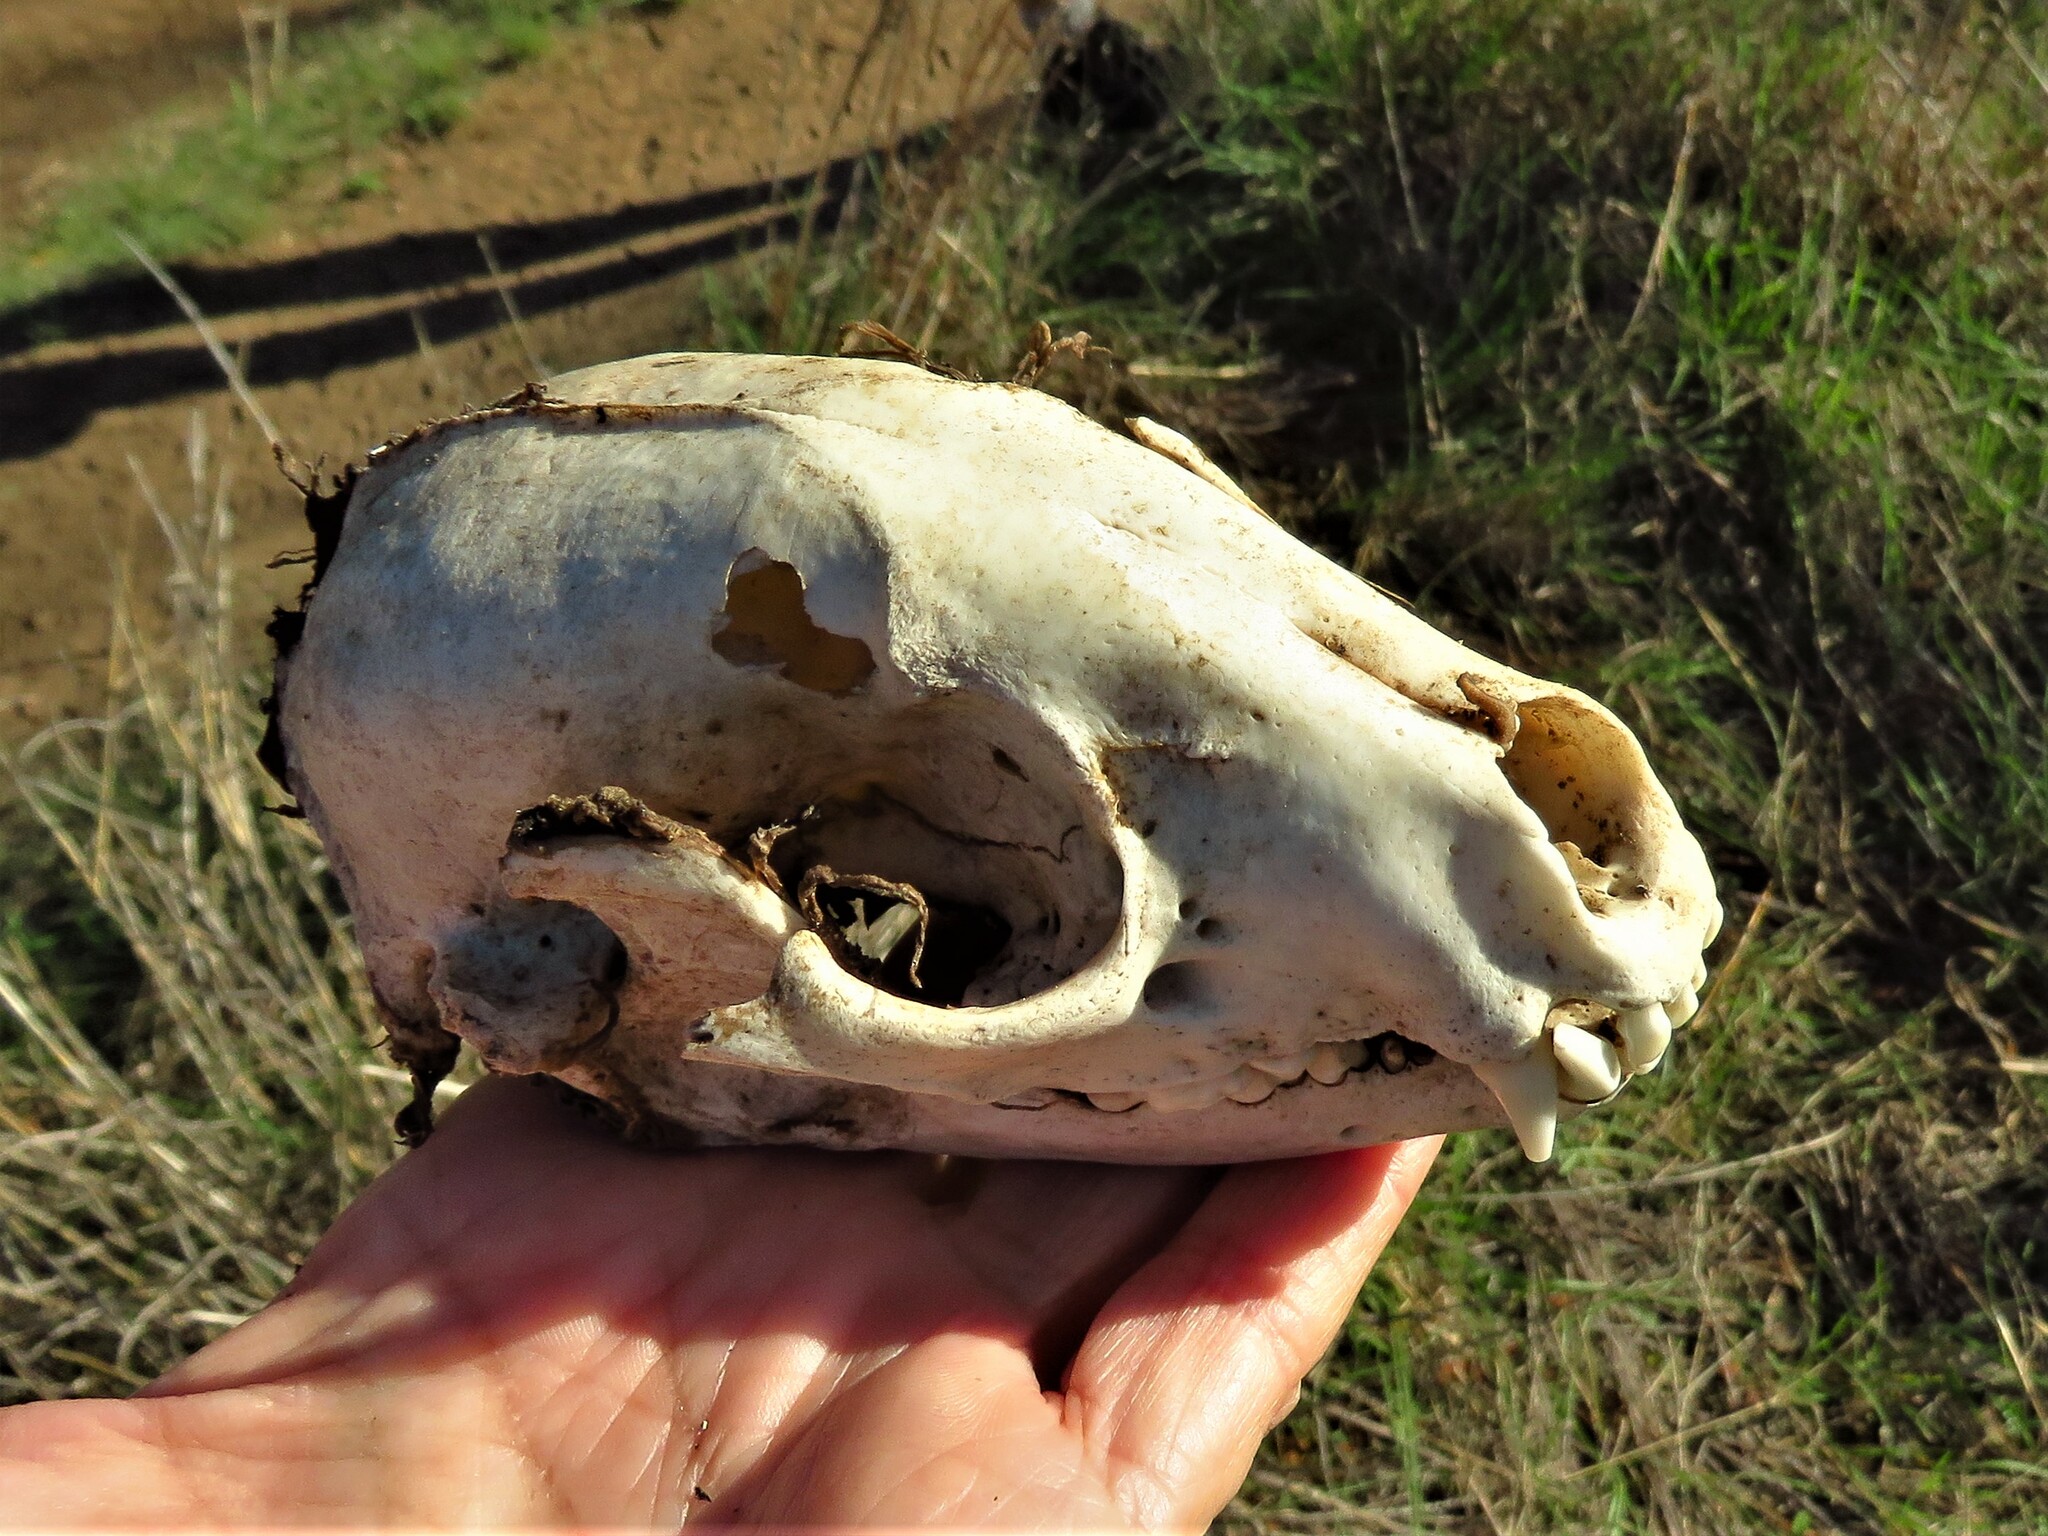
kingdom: Animalia
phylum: Chordata
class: Mammalia
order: Carnivora
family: Procyonidae
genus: Procyon
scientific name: Procyon lotor
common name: Raccoon
